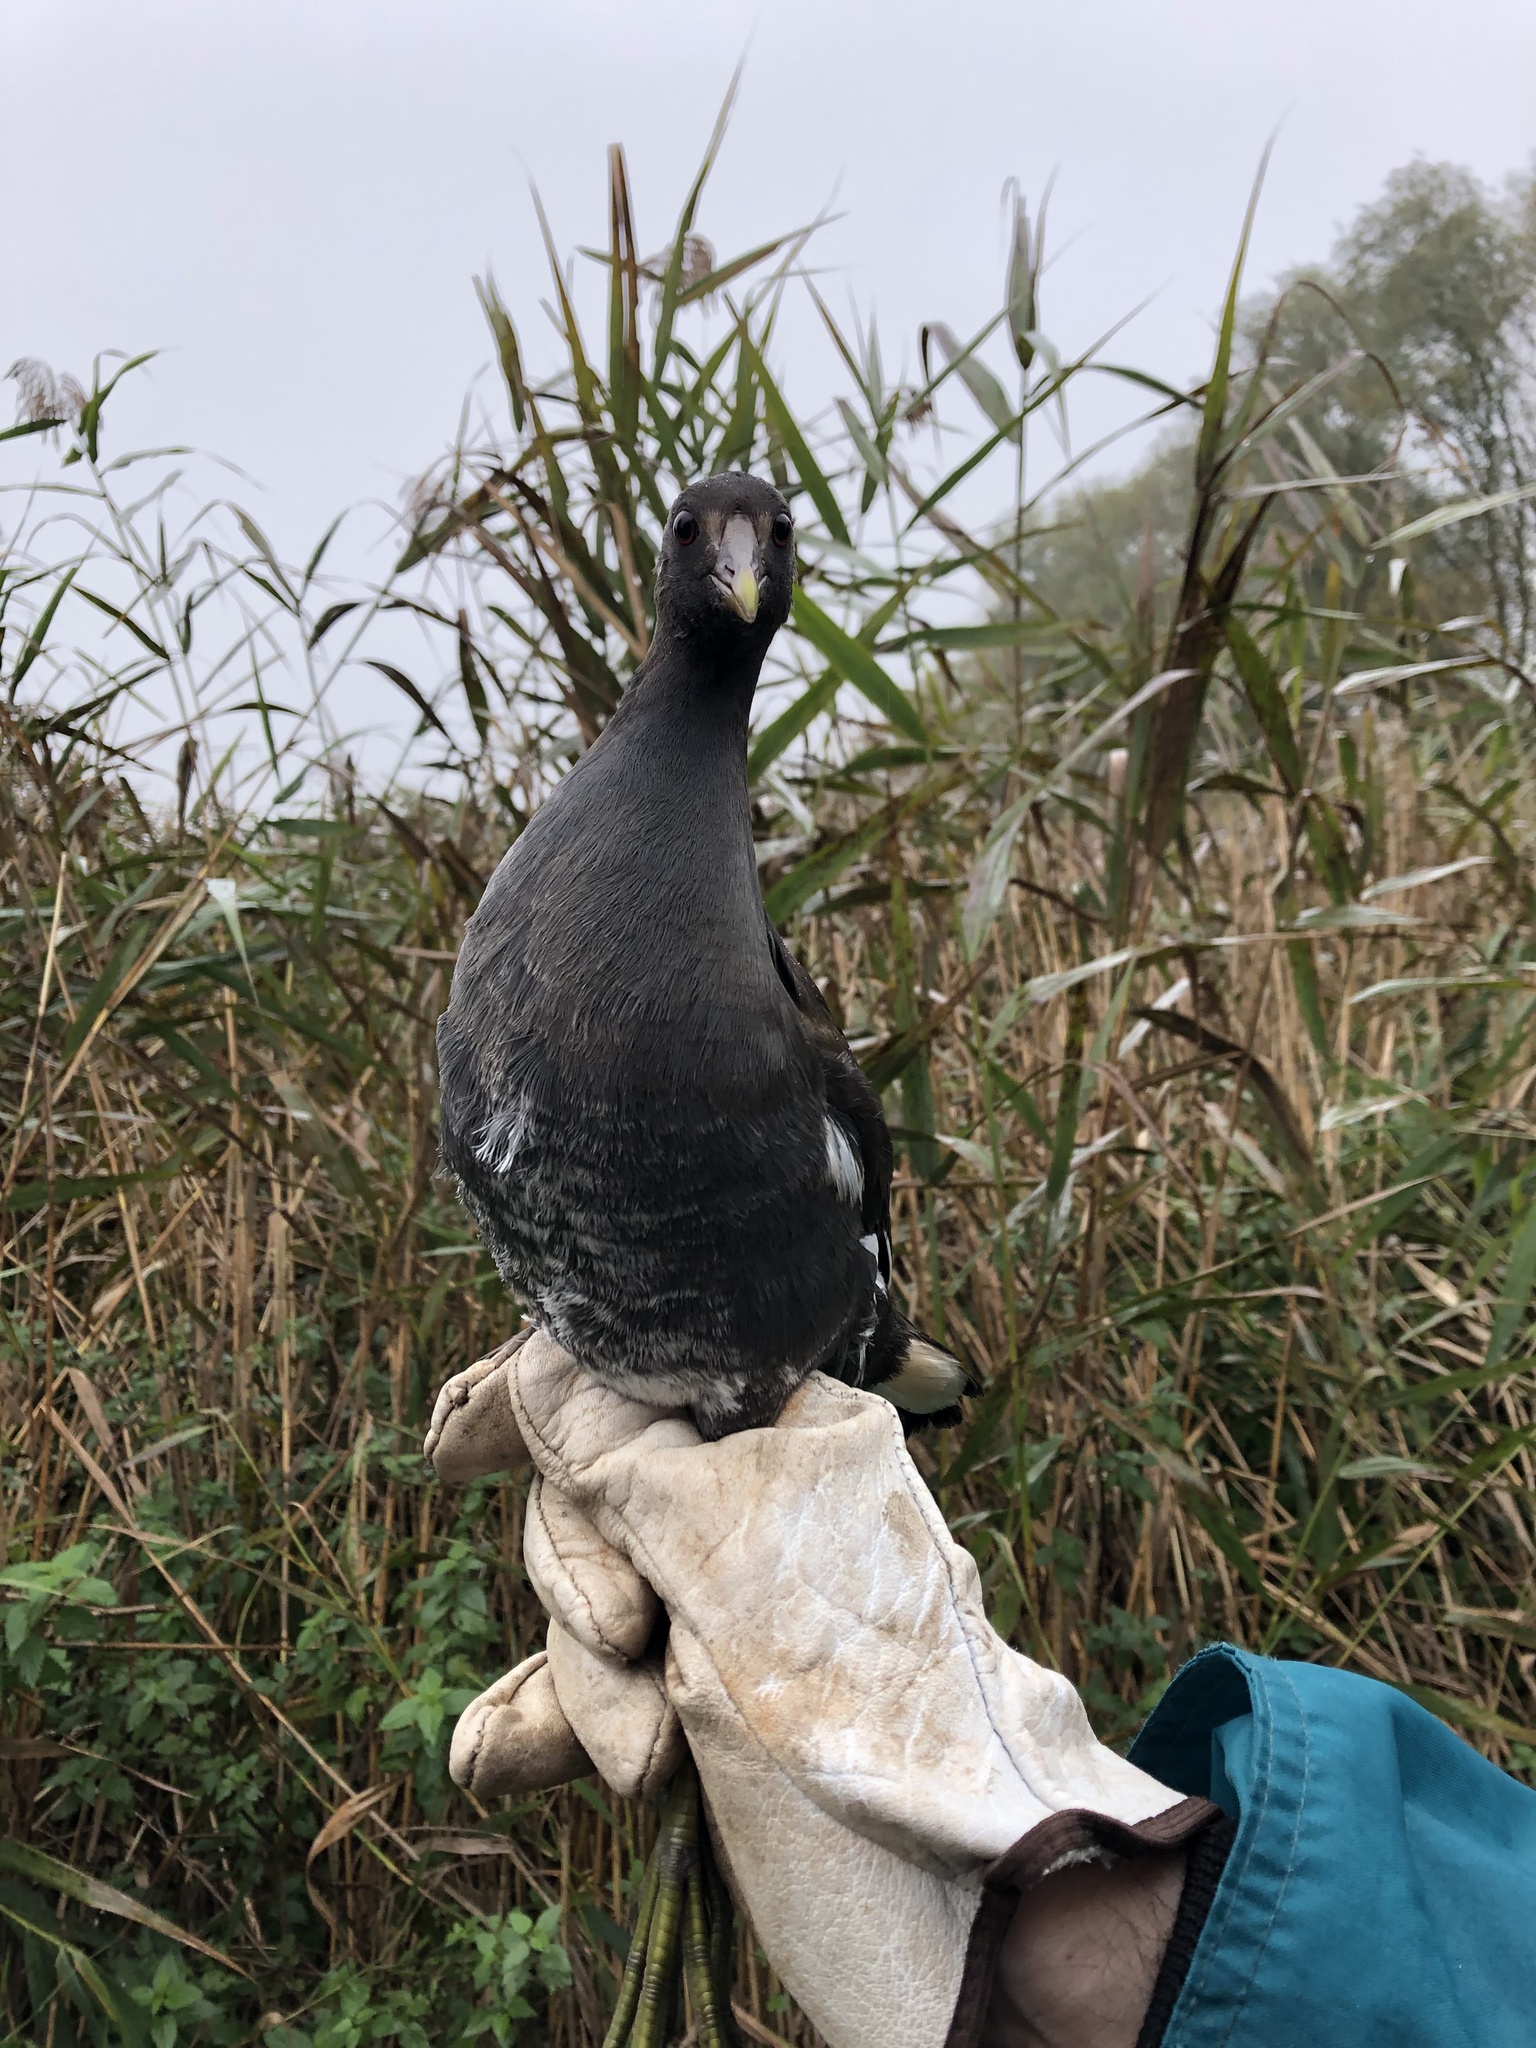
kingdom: Animalia
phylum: Chordata
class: Aves
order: Gruiformes
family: Rallidae
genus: Gallinula
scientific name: Gallinula chloropus
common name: Common moorhen
